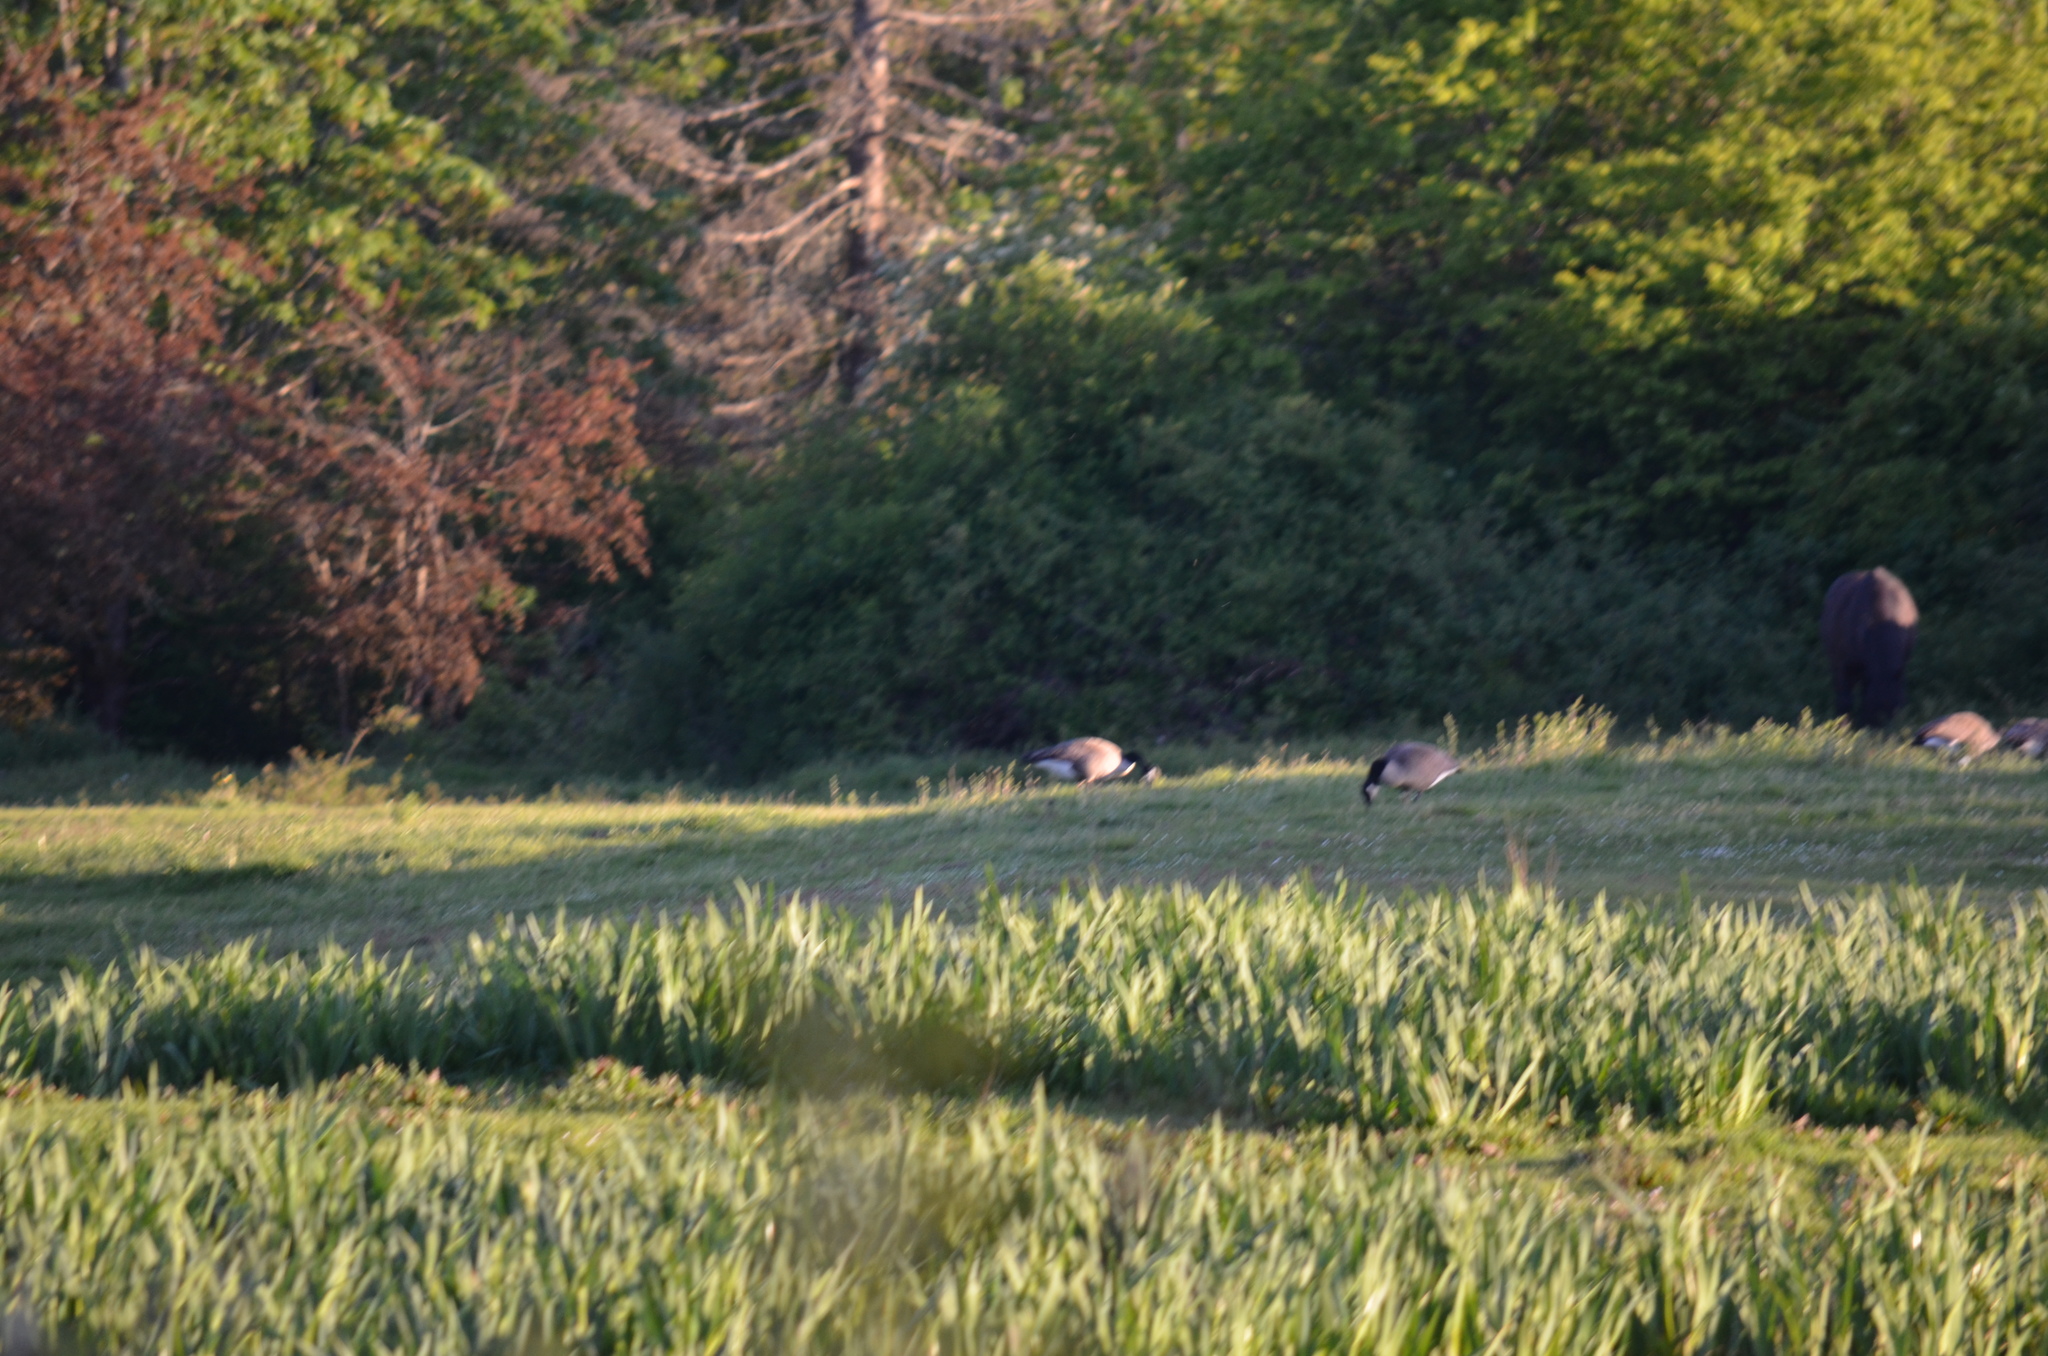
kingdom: Animalia
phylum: Chordata
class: Aves
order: Anseriformes
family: Anatidae
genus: Branta
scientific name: Branta canadensis
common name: Canada goose
